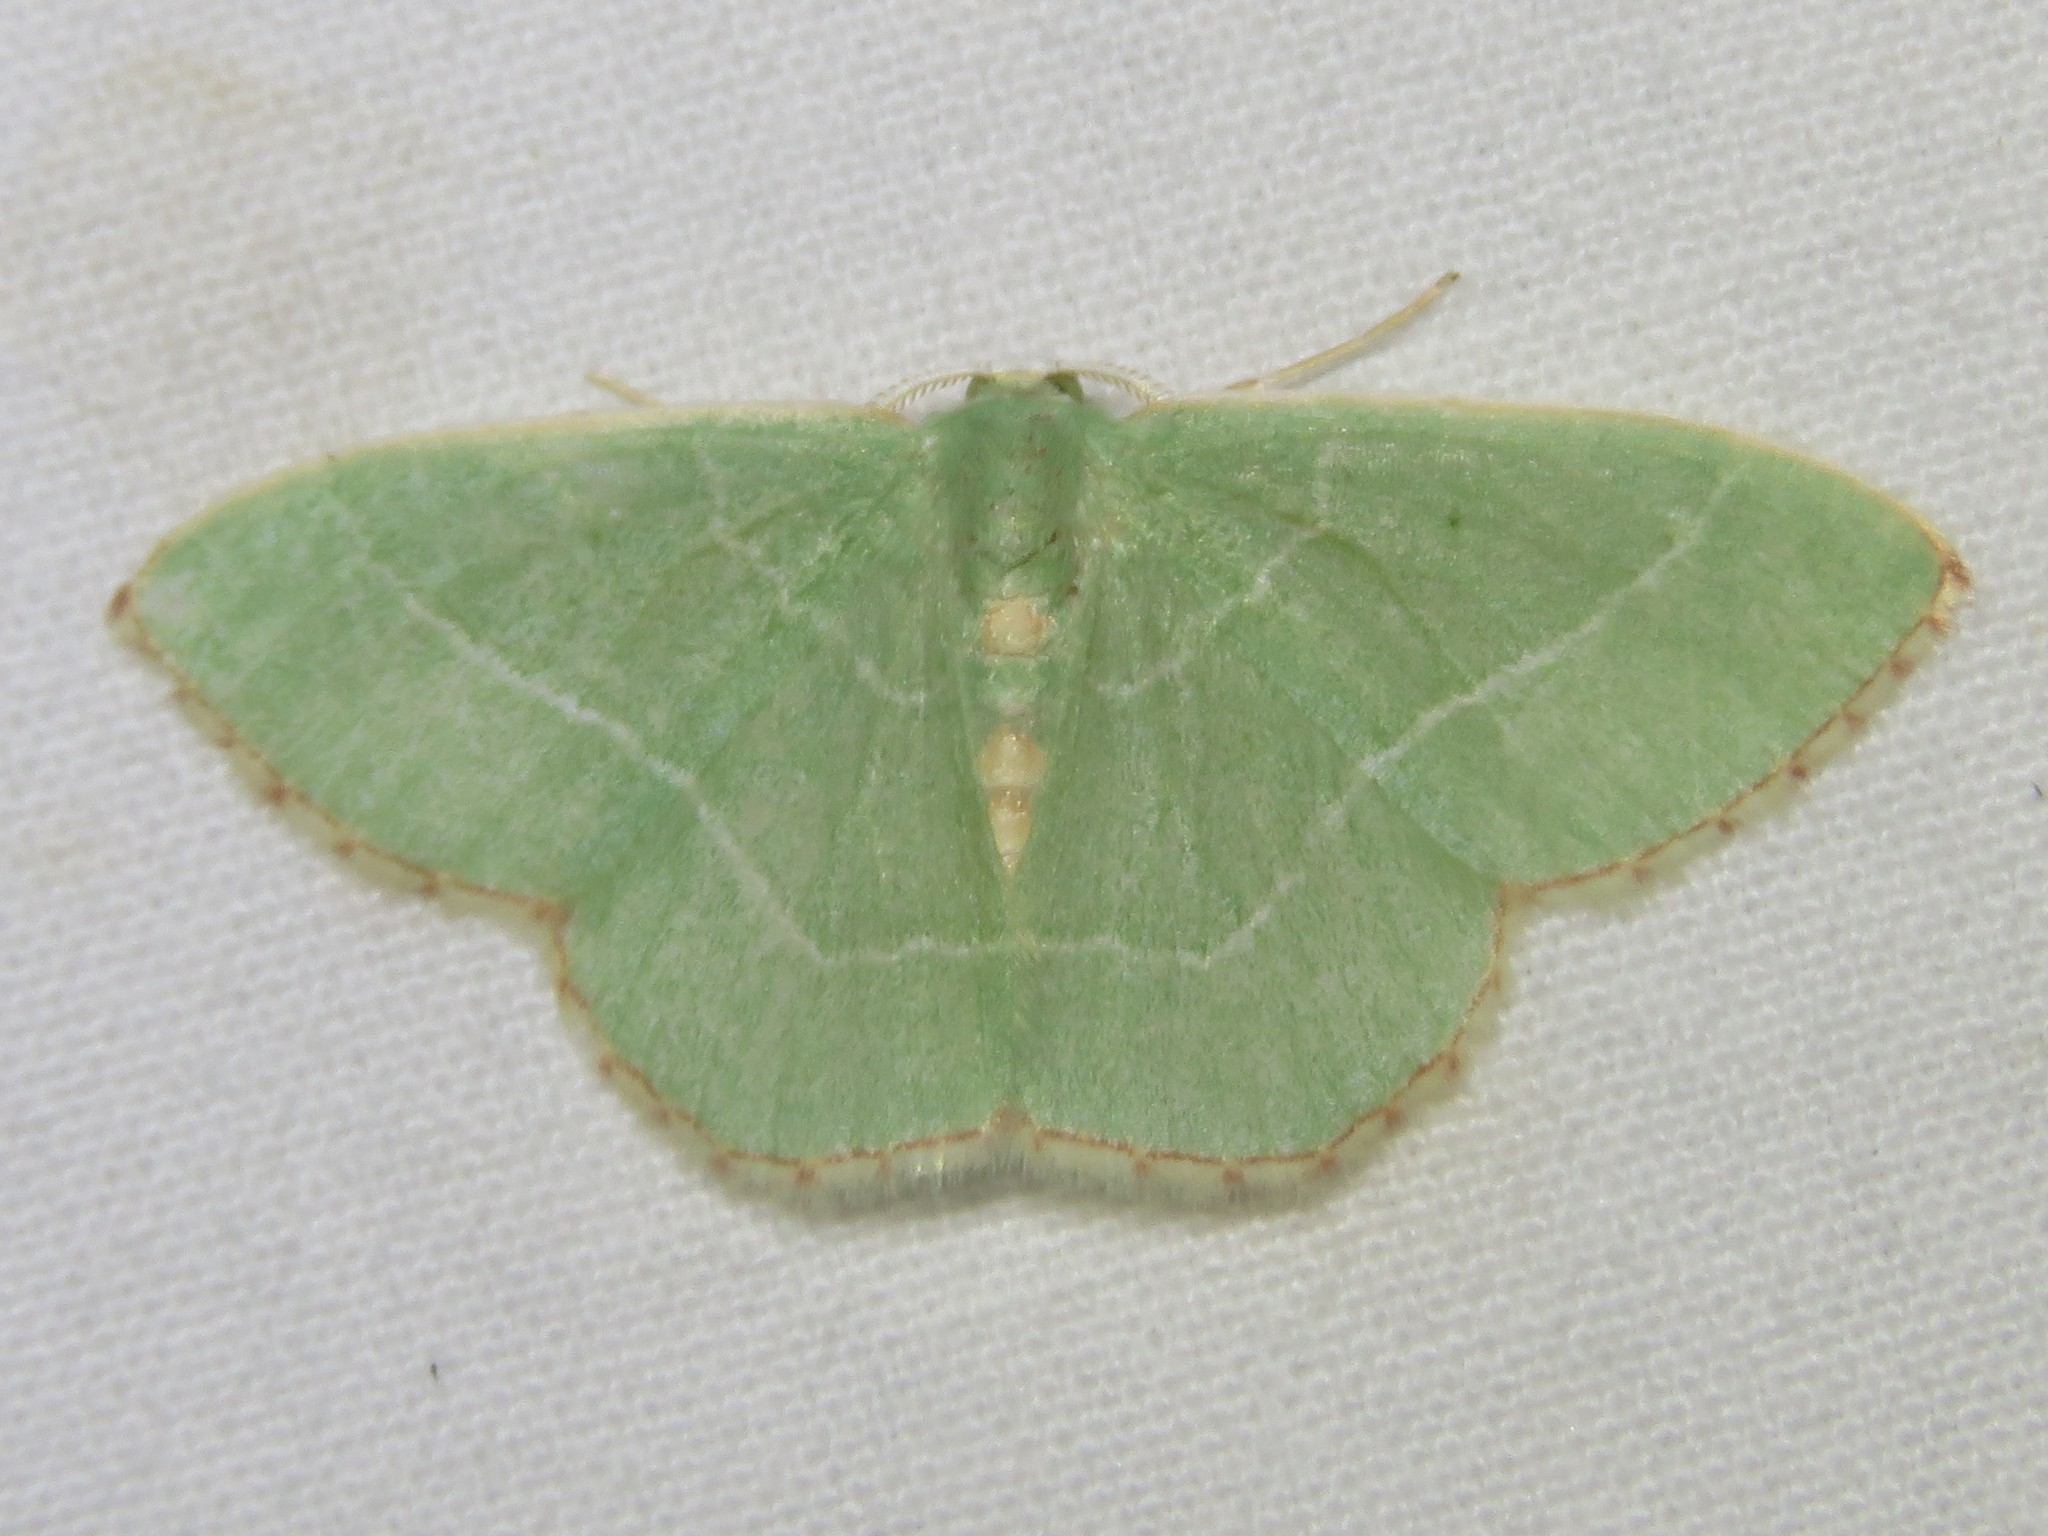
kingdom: Animalia
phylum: Arthropoda
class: Insecta
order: Lepidoptera
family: Geometridae
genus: Nemoria
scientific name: Nemoria bistriaria
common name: Red-fringed emerald
